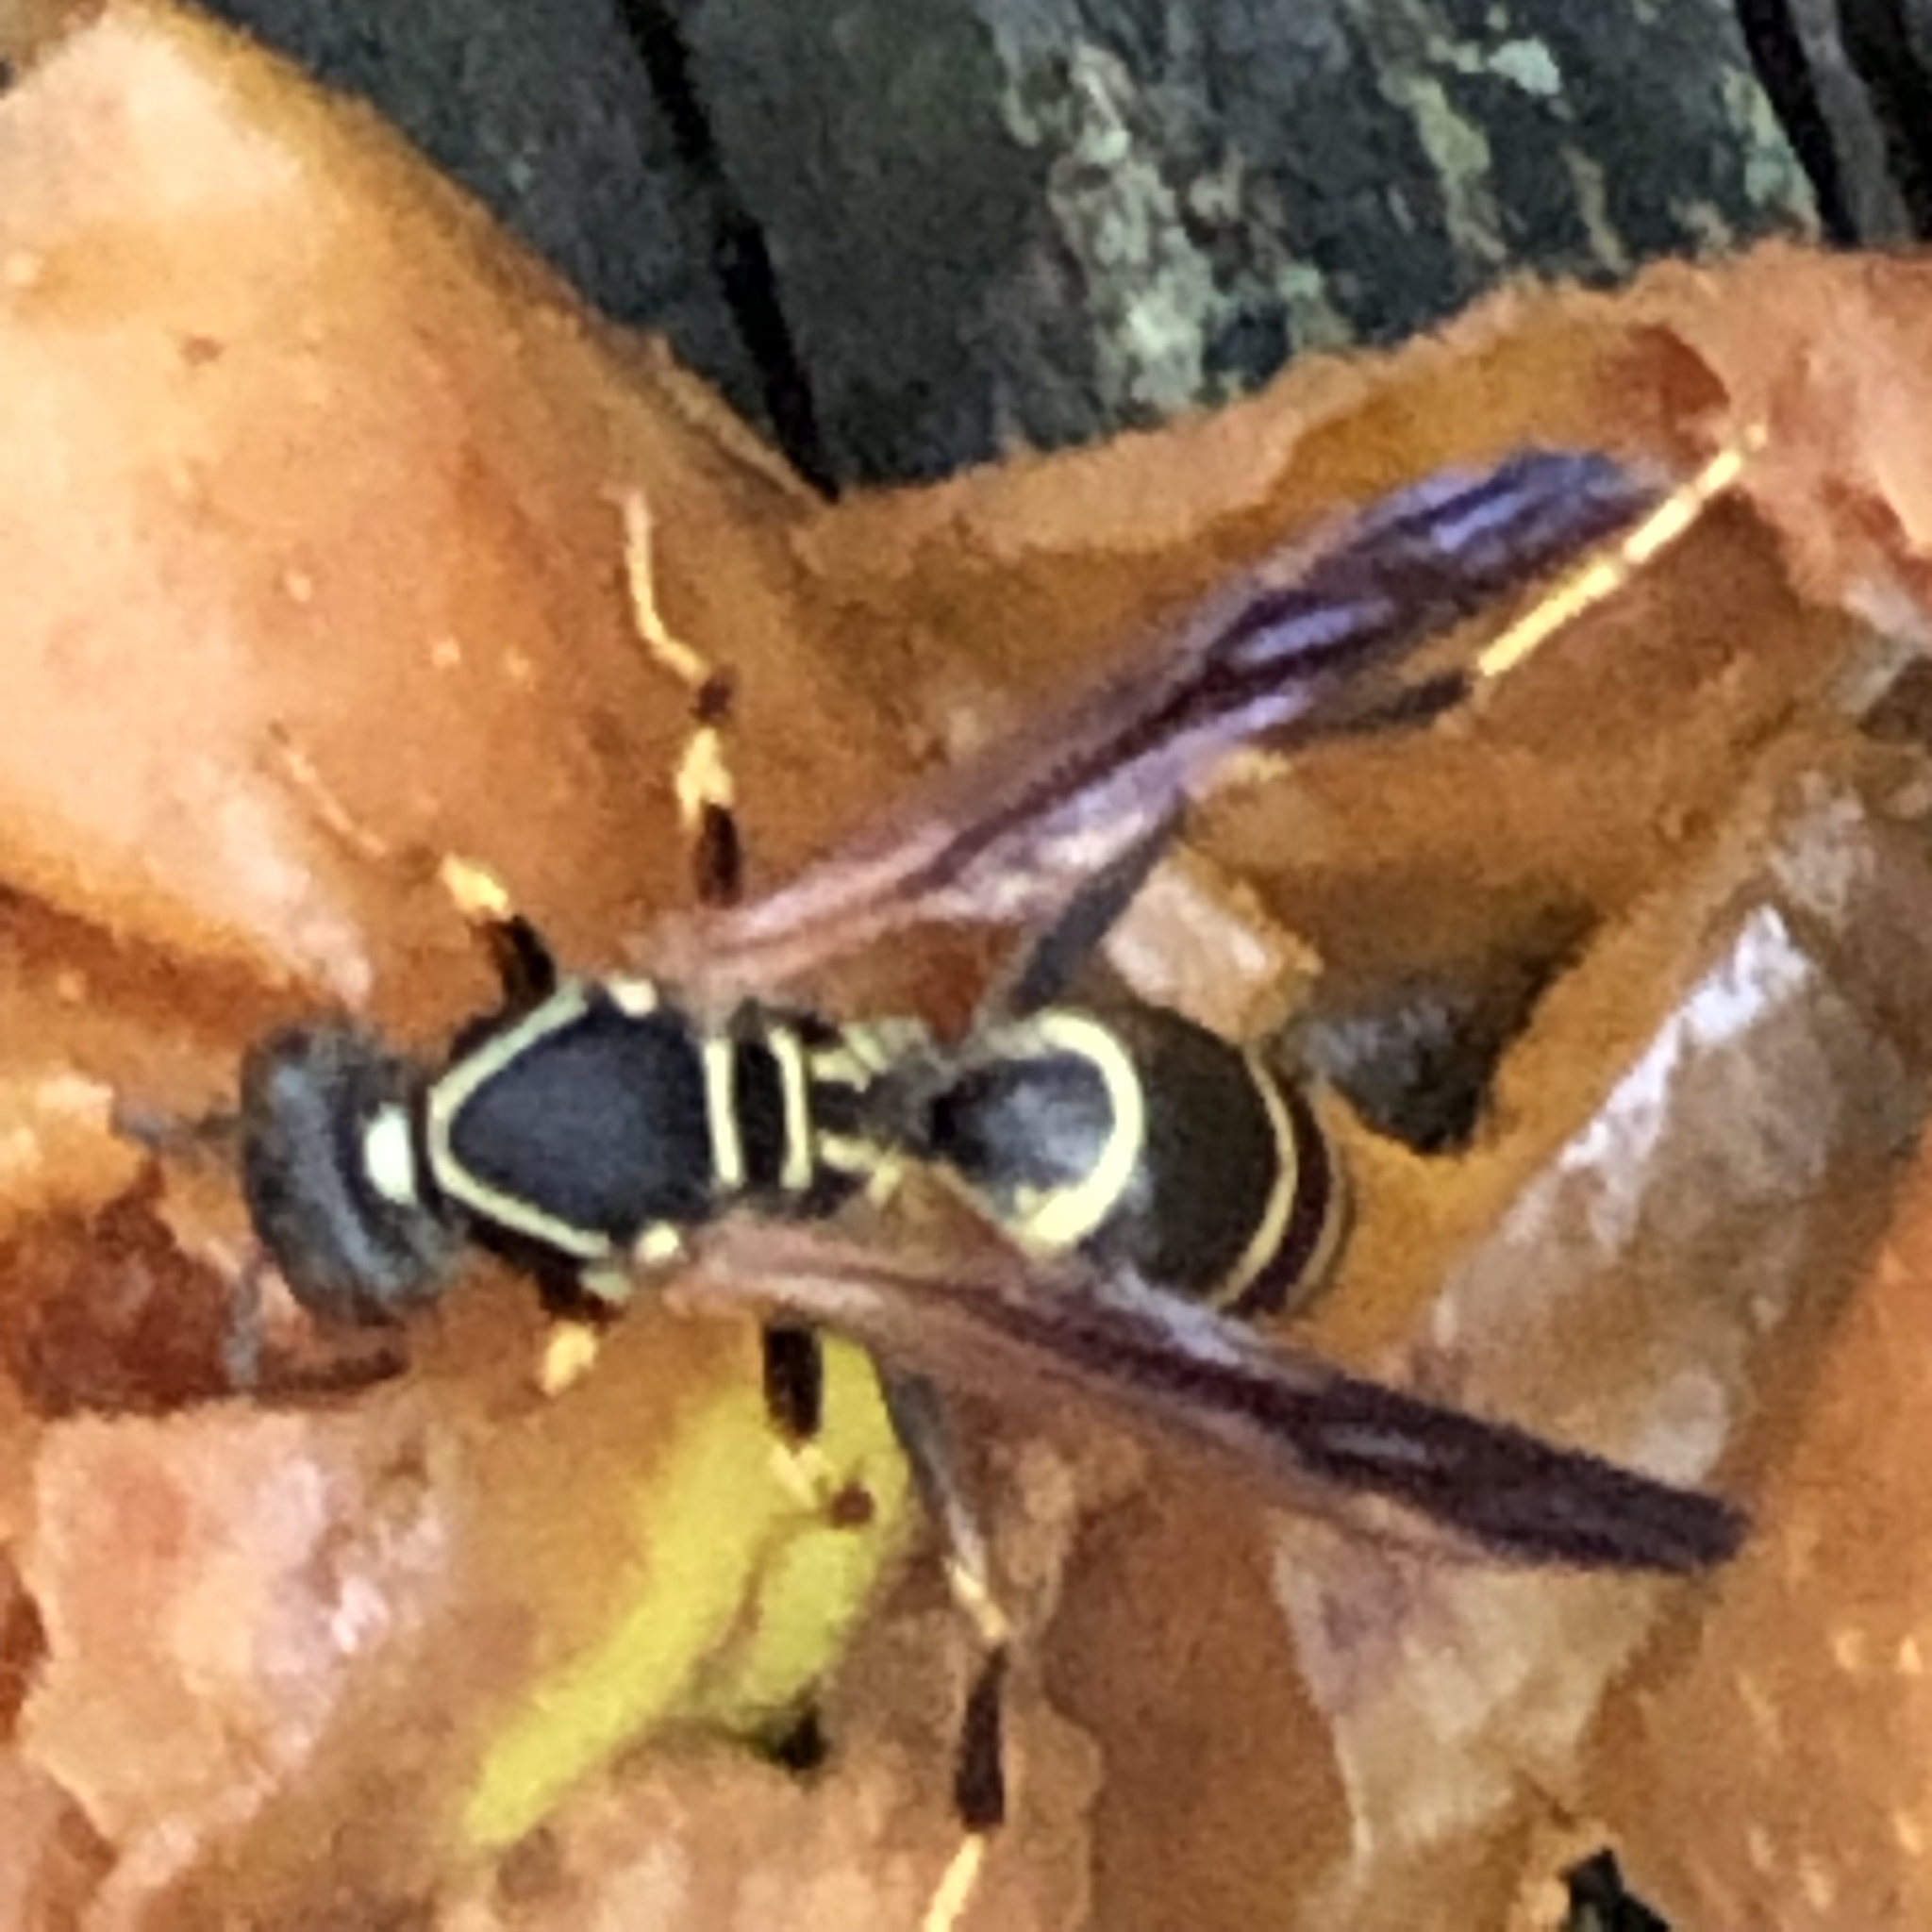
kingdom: Animalia
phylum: Arthropoda
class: Insecta
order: Hymenoptera
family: Eumenidae
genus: Polistes
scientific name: Polistes fuscatus
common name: Dark paper wasp
